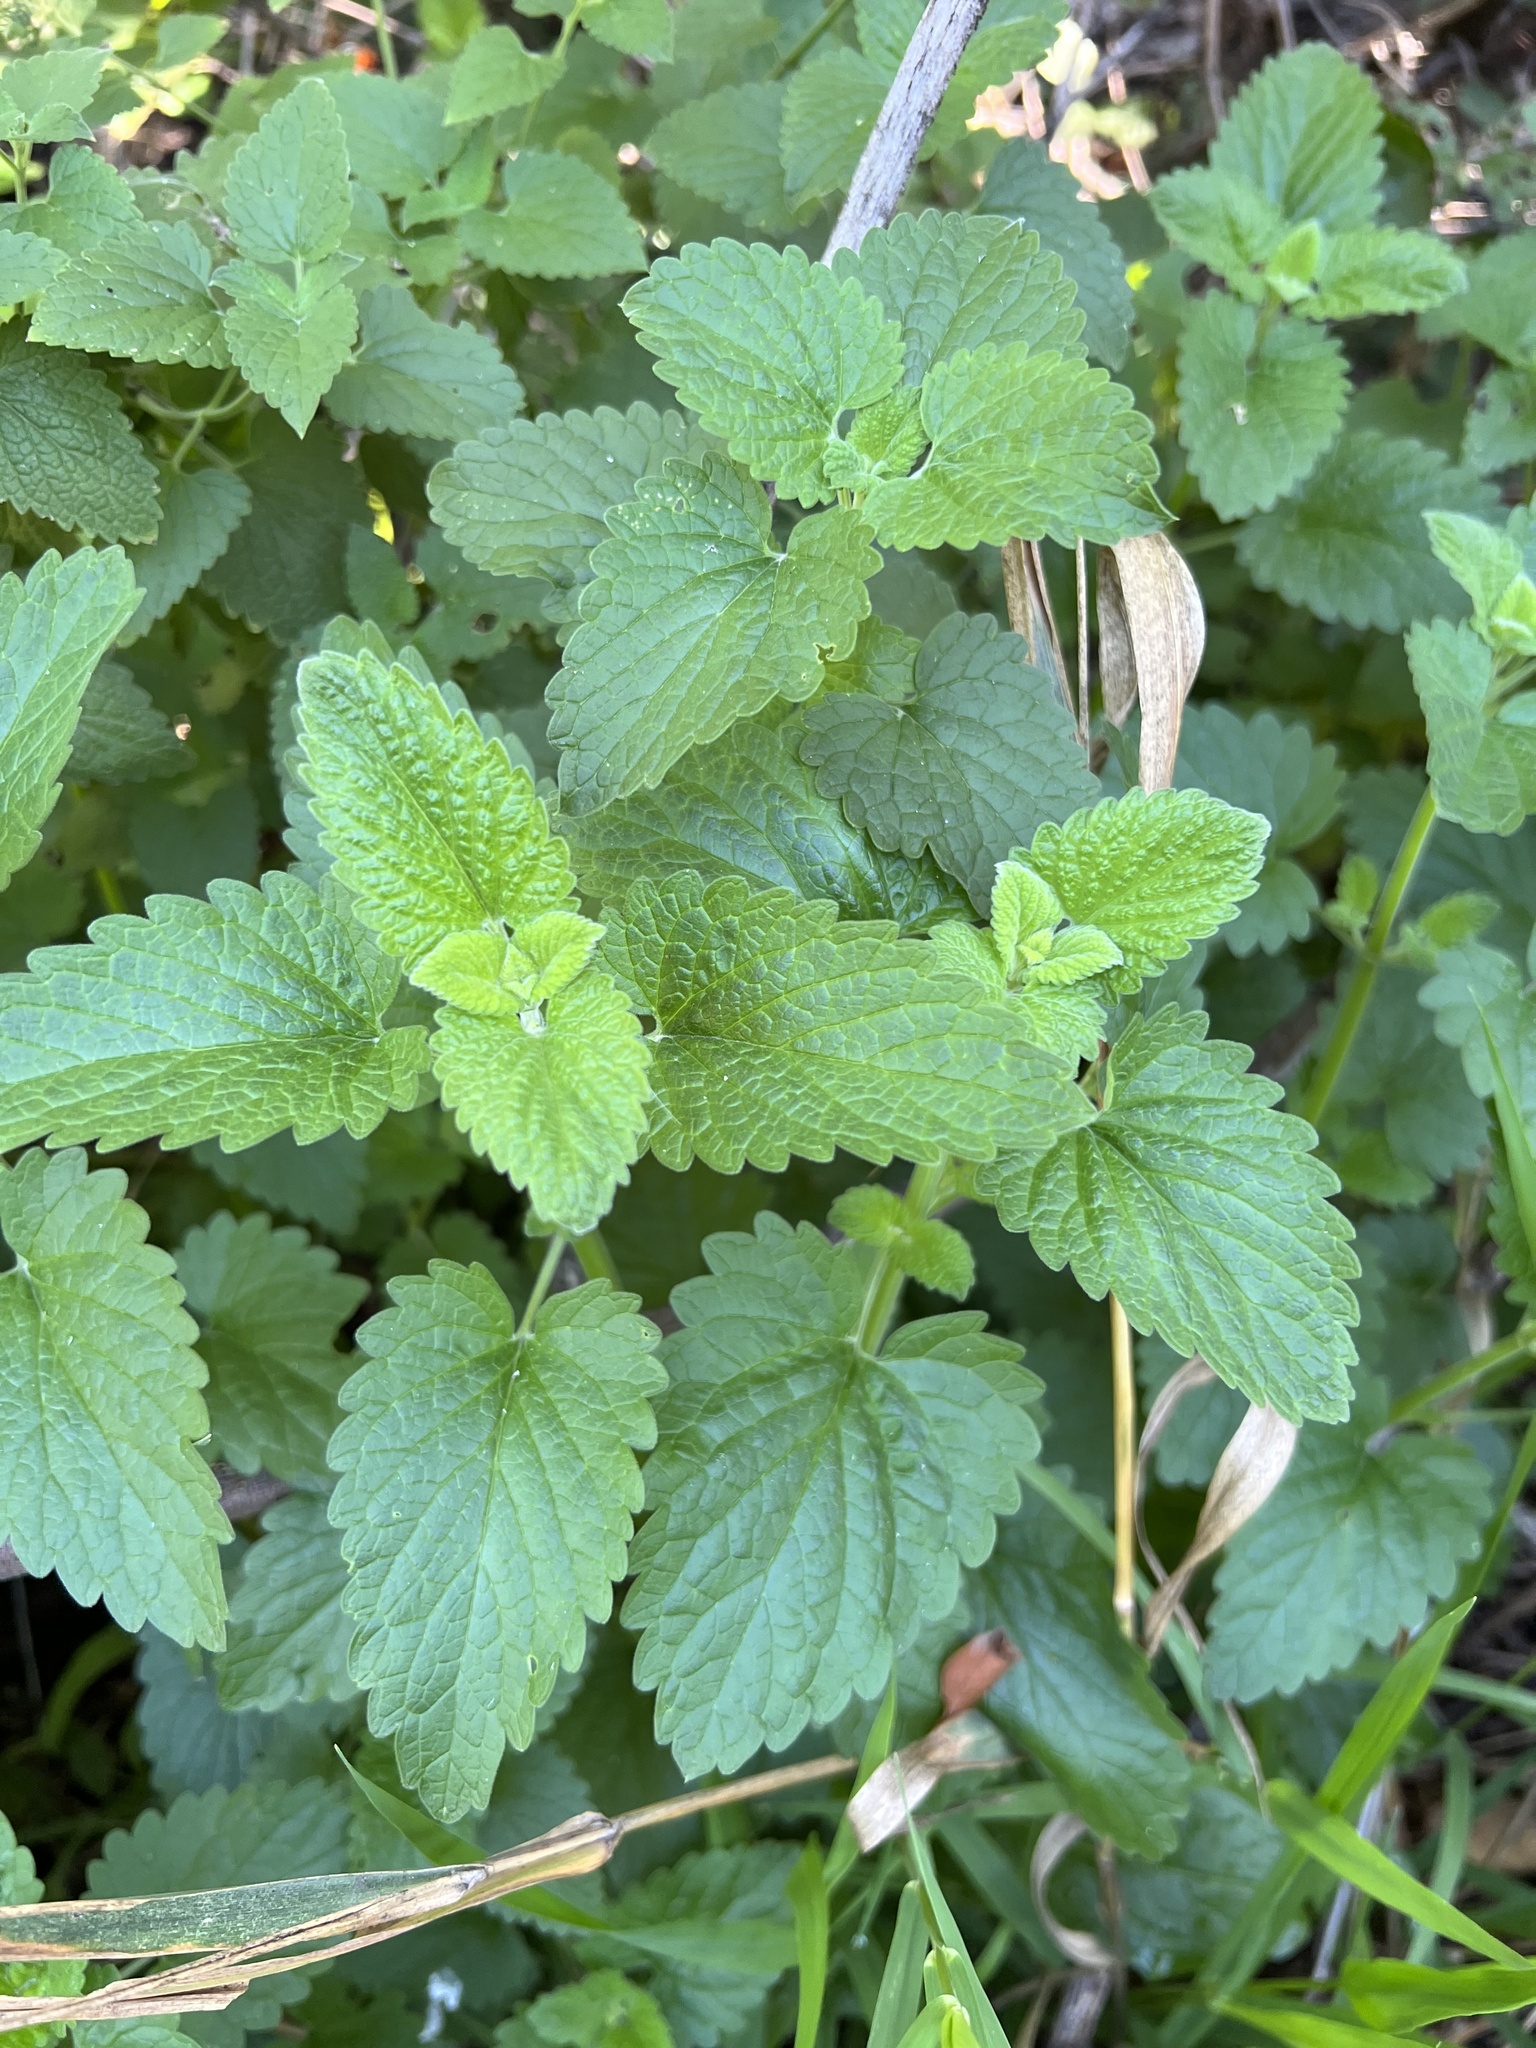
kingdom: Plantae
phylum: Tracheophyta
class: Magnoliopsida
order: Lamiales
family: Lamiaceae
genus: Nepeta
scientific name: Nepeta cataria
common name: Catnip
